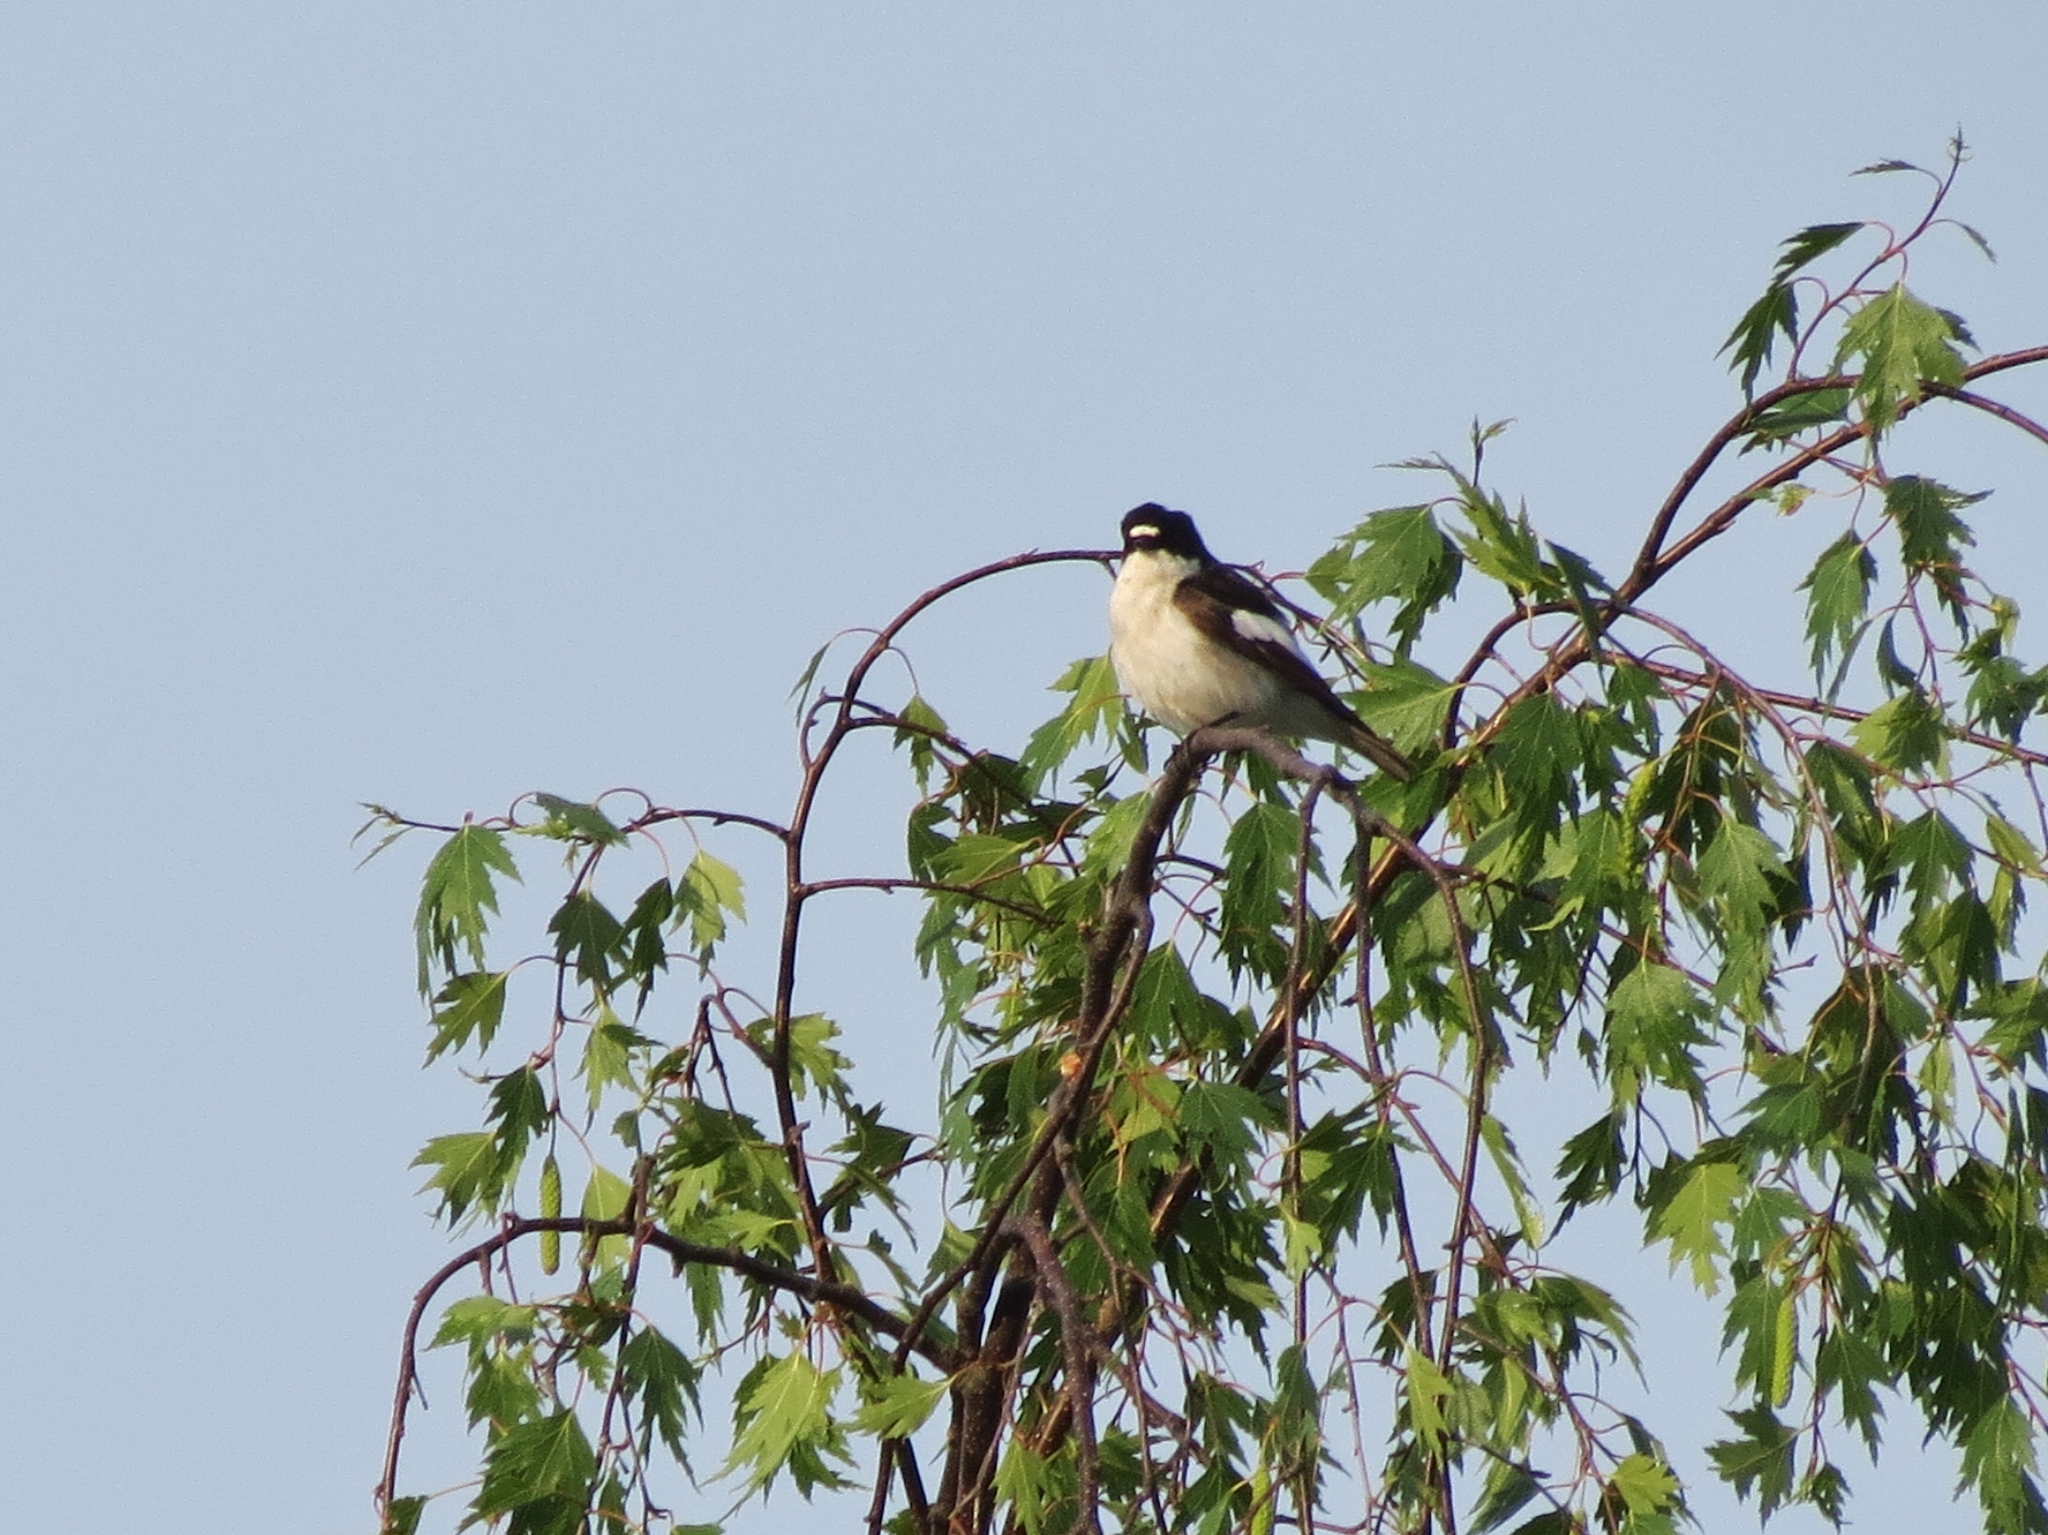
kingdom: Animalia
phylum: Chordata
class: Aves
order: Passeriformes
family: Muscicapidae
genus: Ficedula
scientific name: Ficedula hypoleuca
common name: European pied flycatcher
